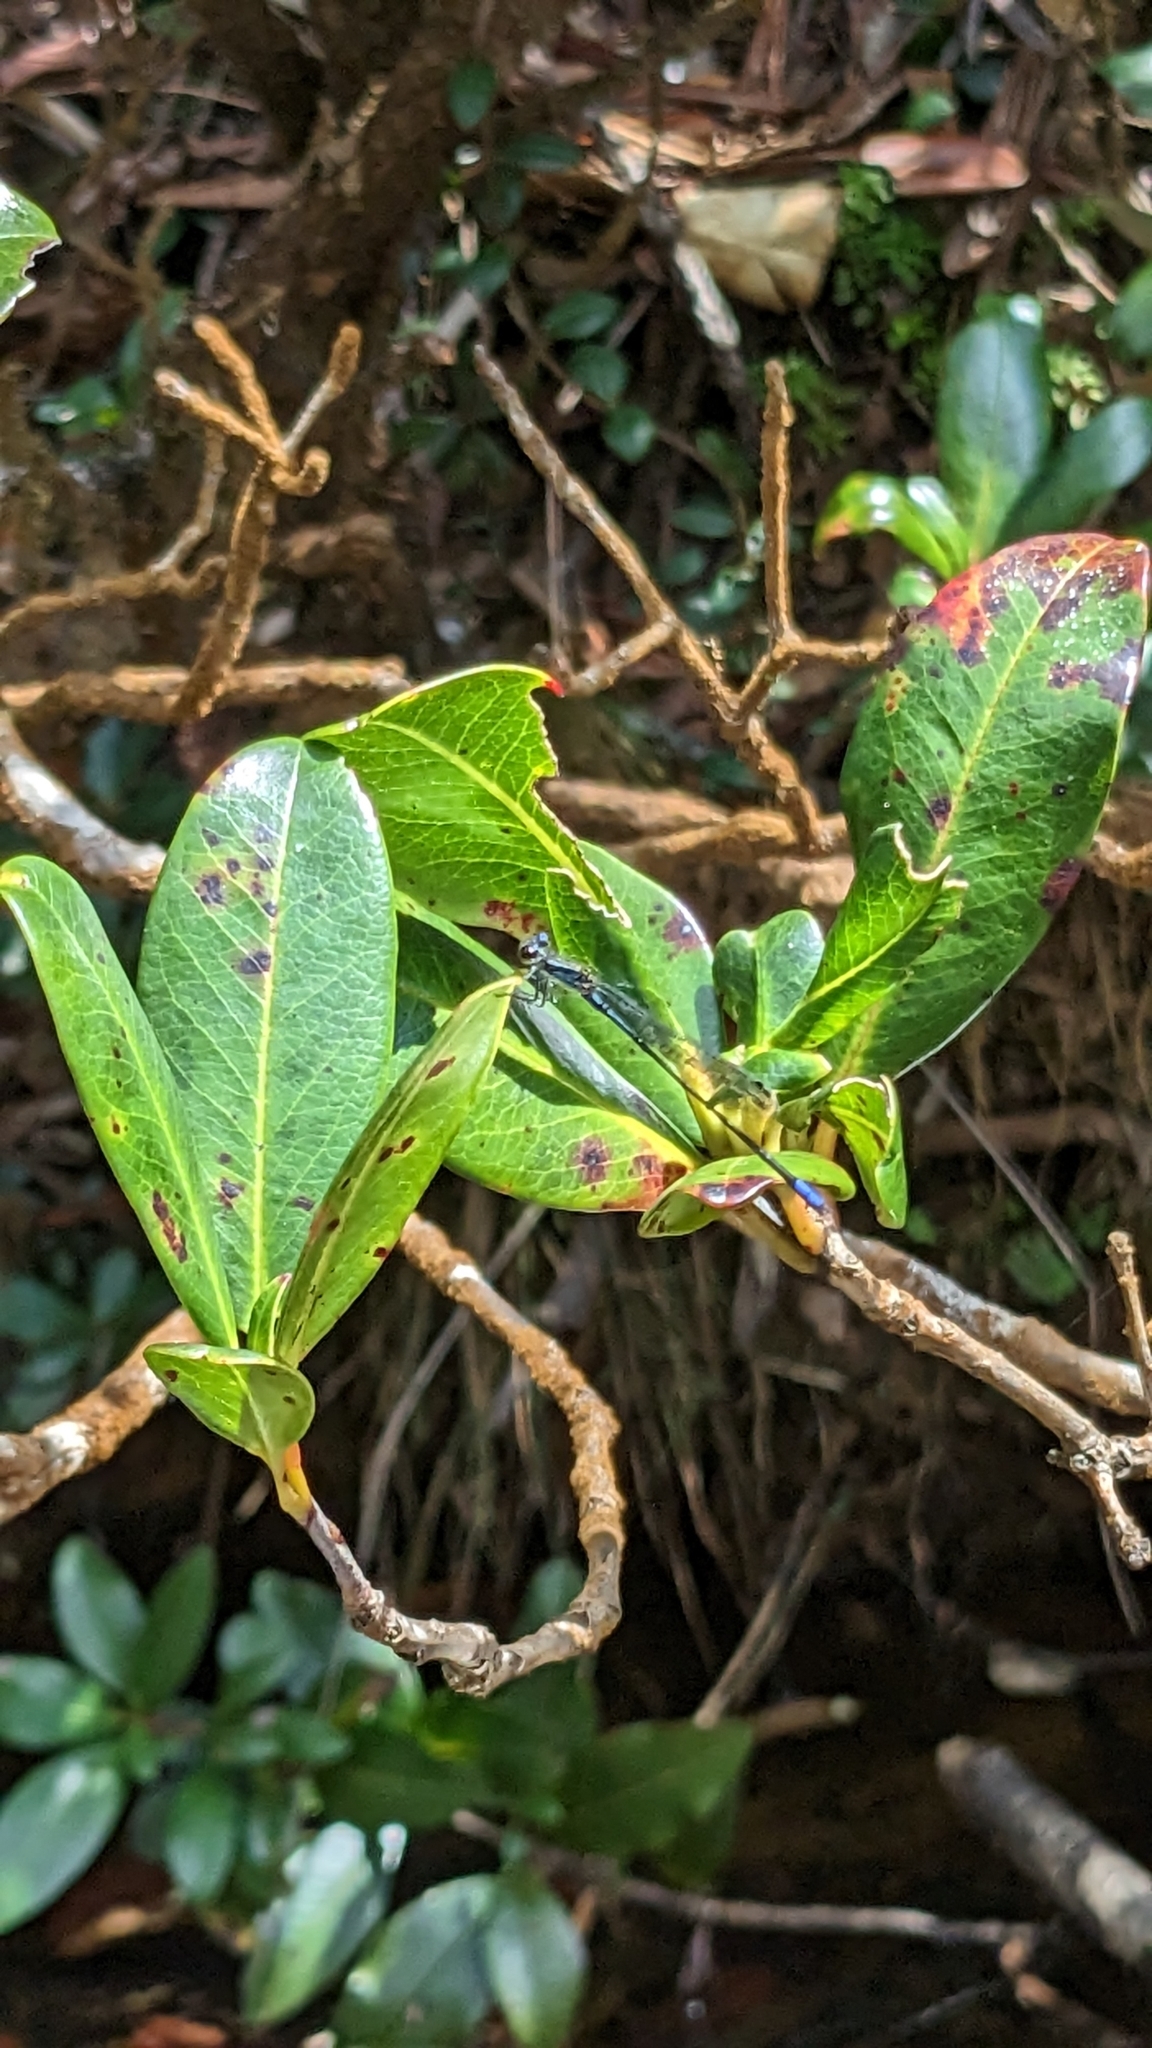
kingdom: Animalia
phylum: Arthropoda
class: Insecta
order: Odonata
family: Coenagrionidae
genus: Enallagma
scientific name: Enallagma cardenium
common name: Purple bluet
